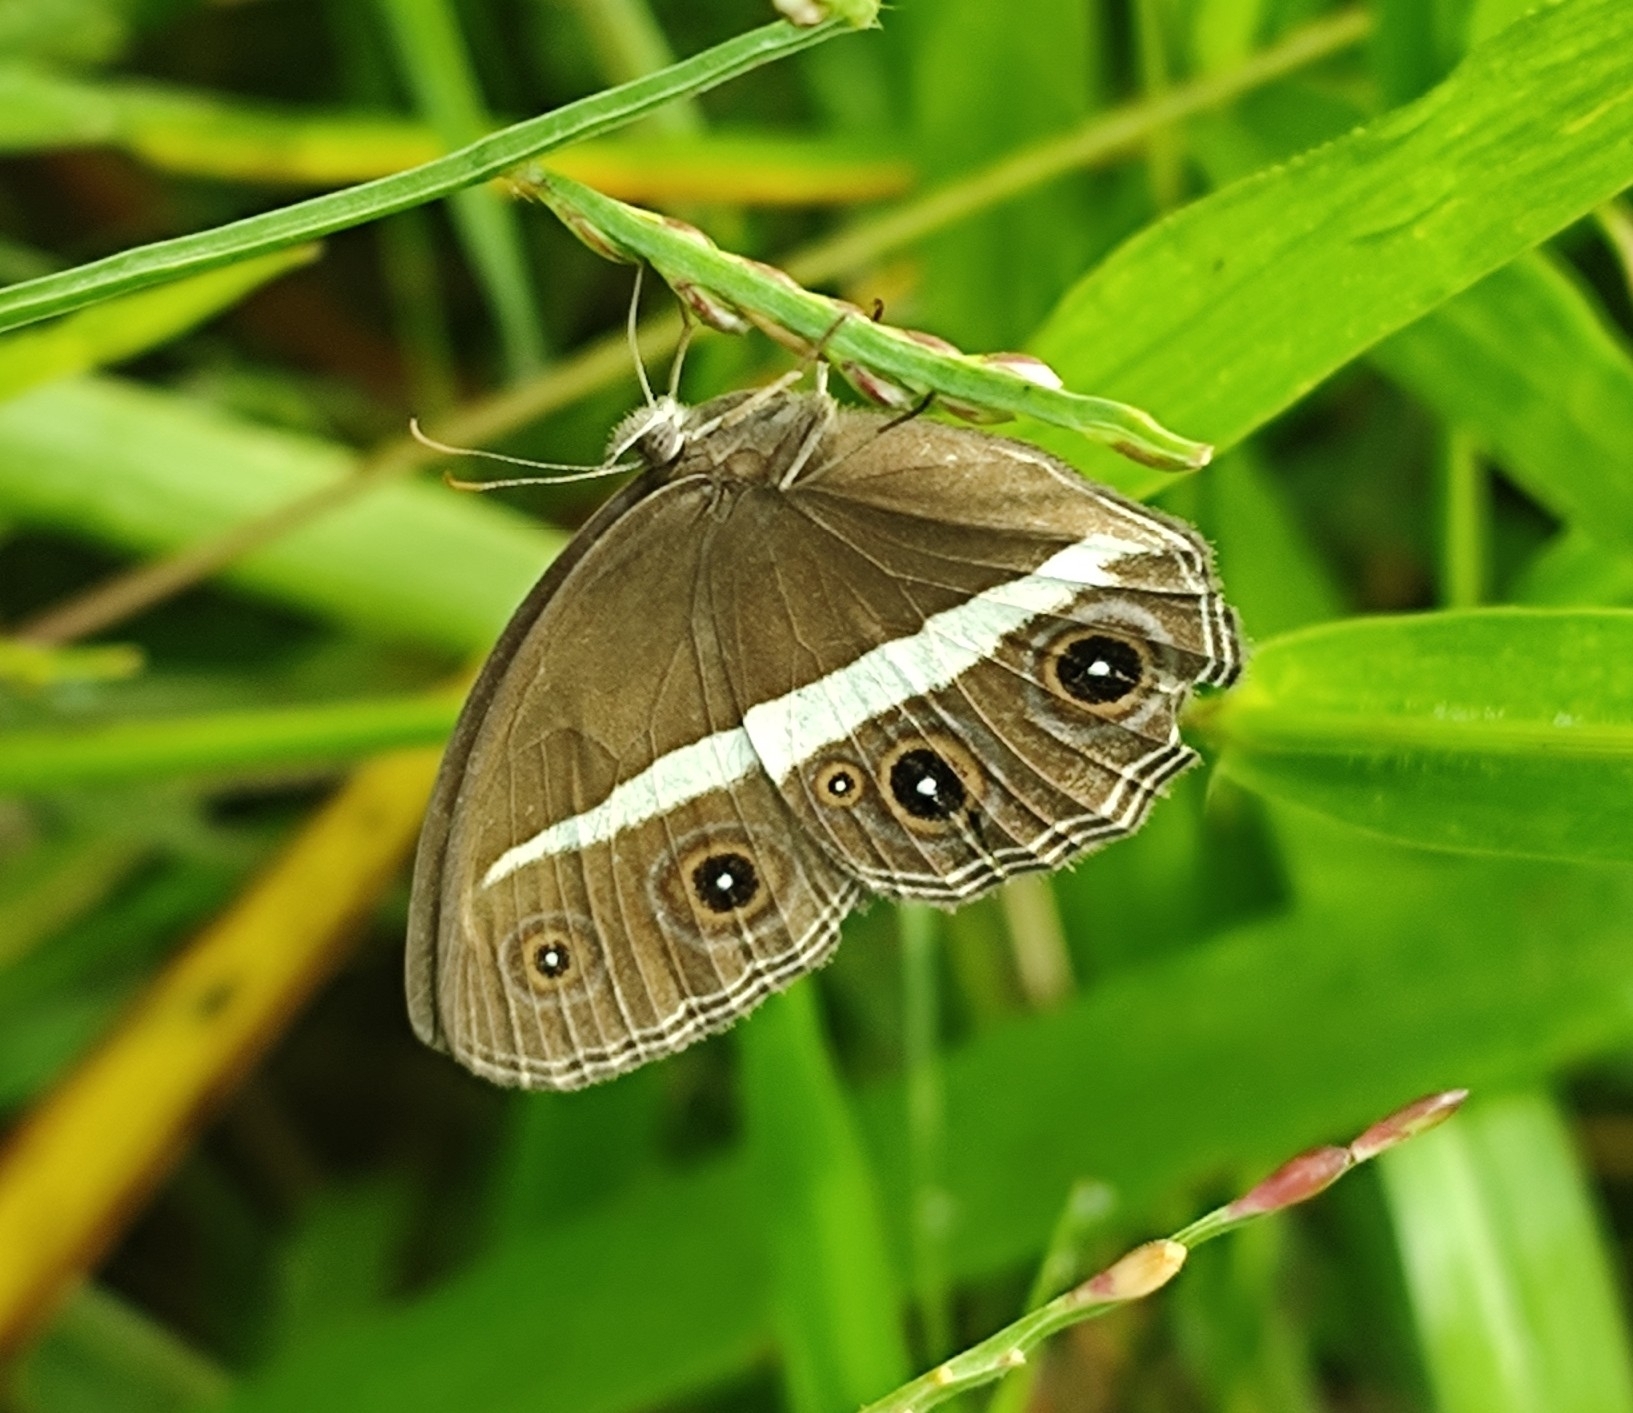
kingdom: Animalia
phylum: Arthropoda
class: Insecta
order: Lepidoptera
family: Nymphalidae
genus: Orsotriaena
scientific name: Orsotriaena medus
